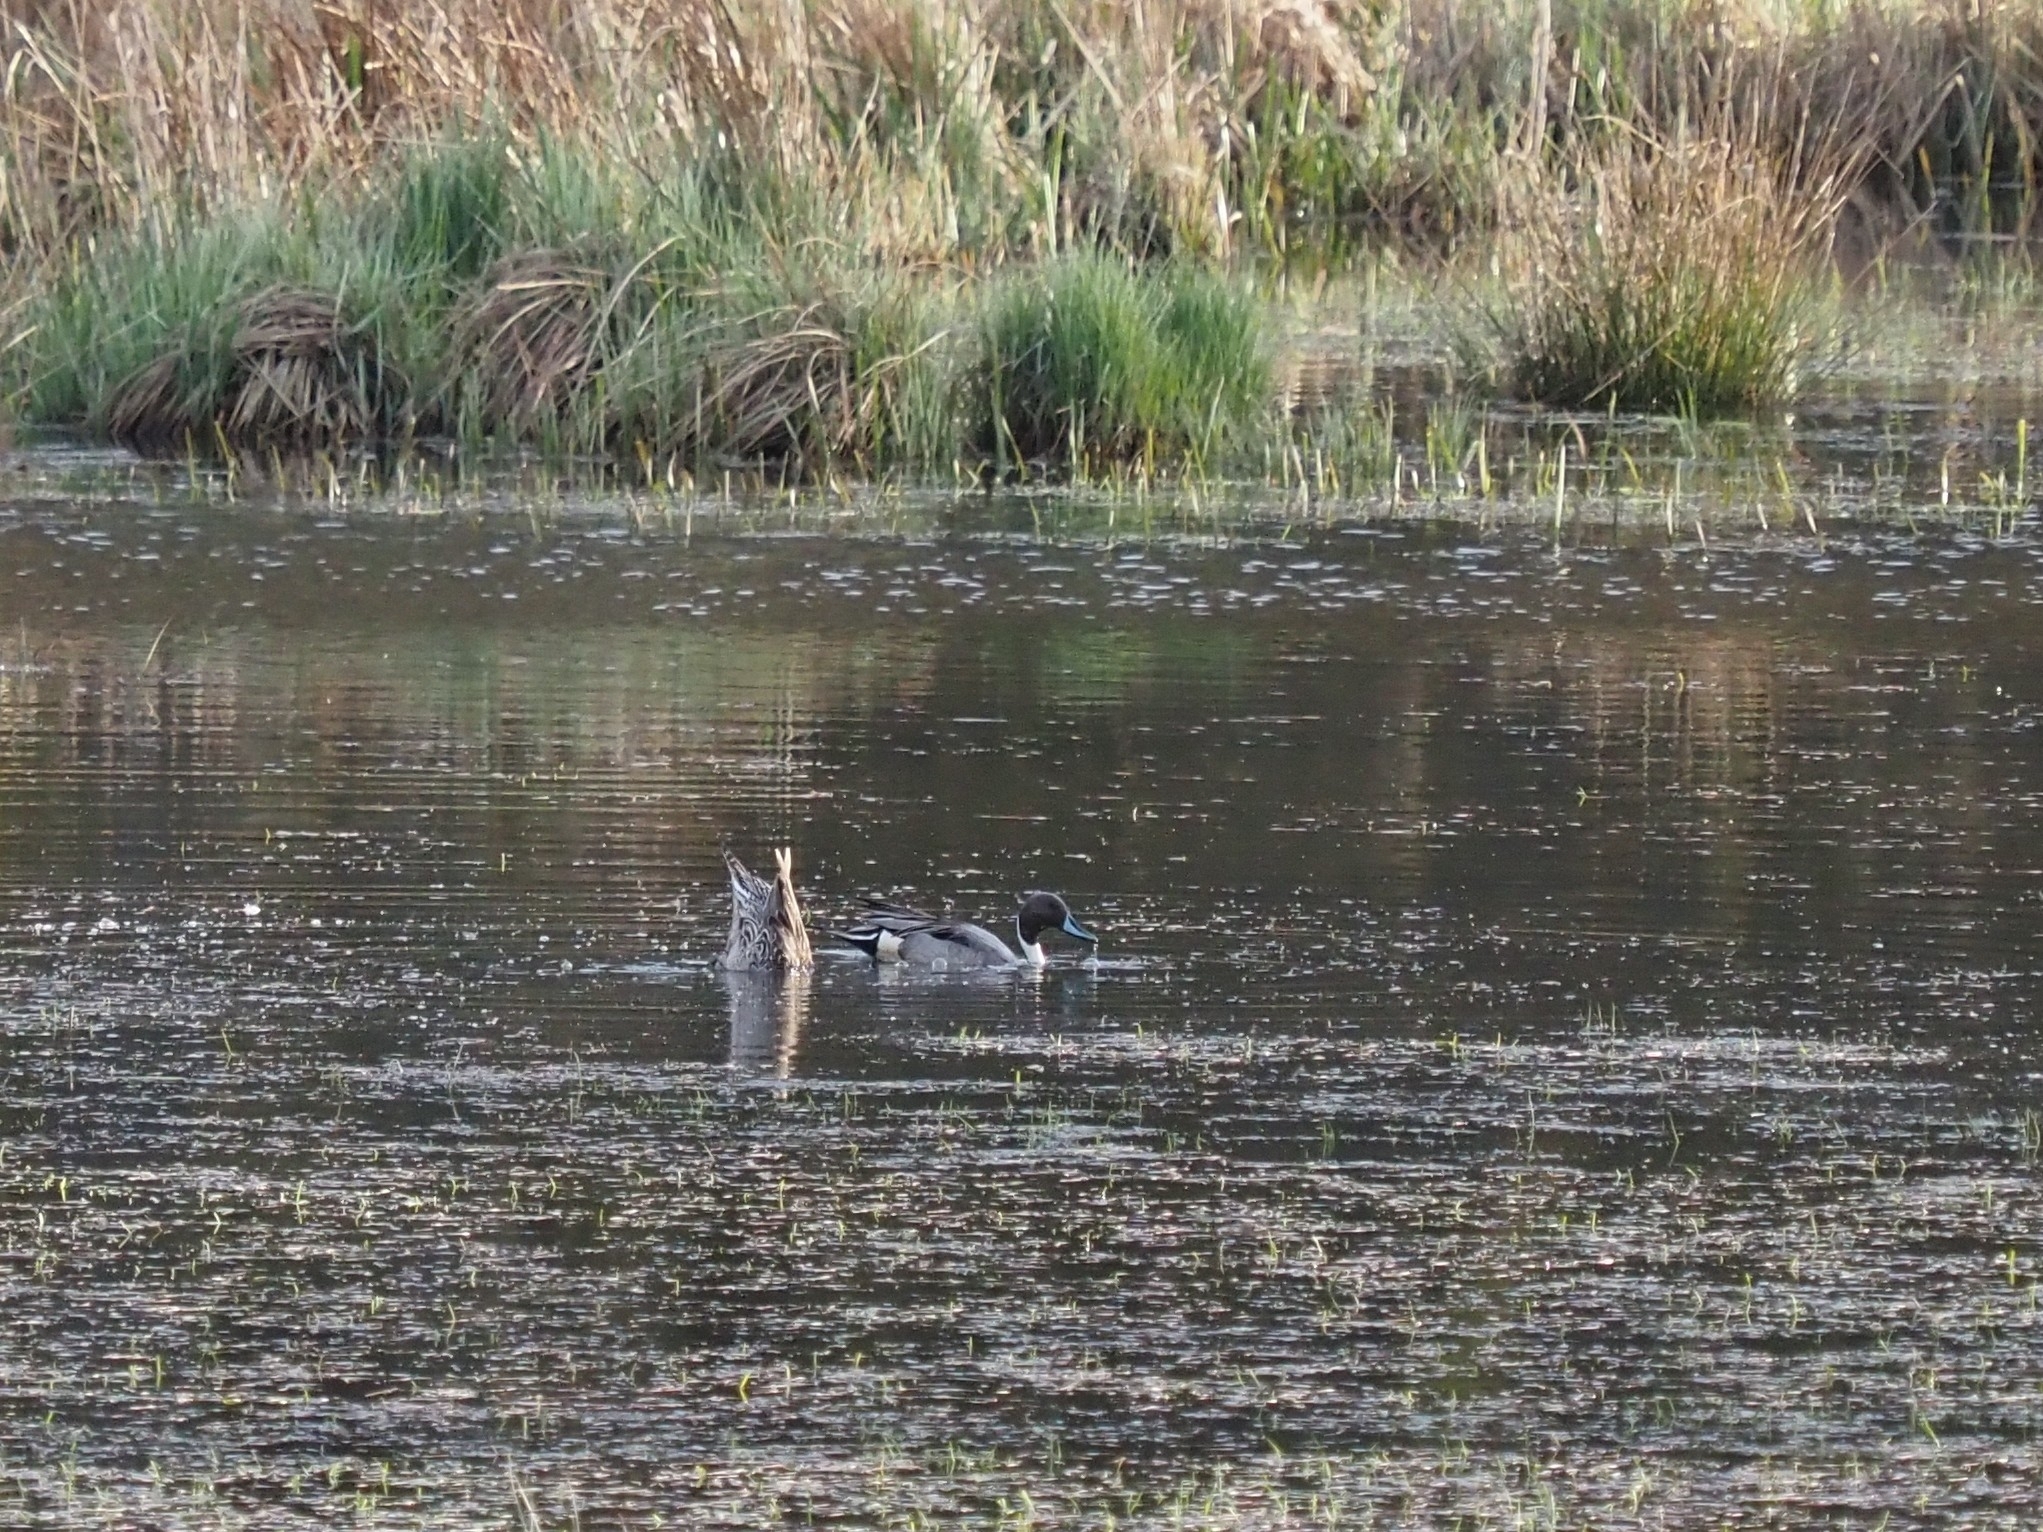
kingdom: Animalia
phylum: Chordata
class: Aves
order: Anseriformes
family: Anatidae
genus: Anas
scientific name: Anas acuta
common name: Northern pintail
